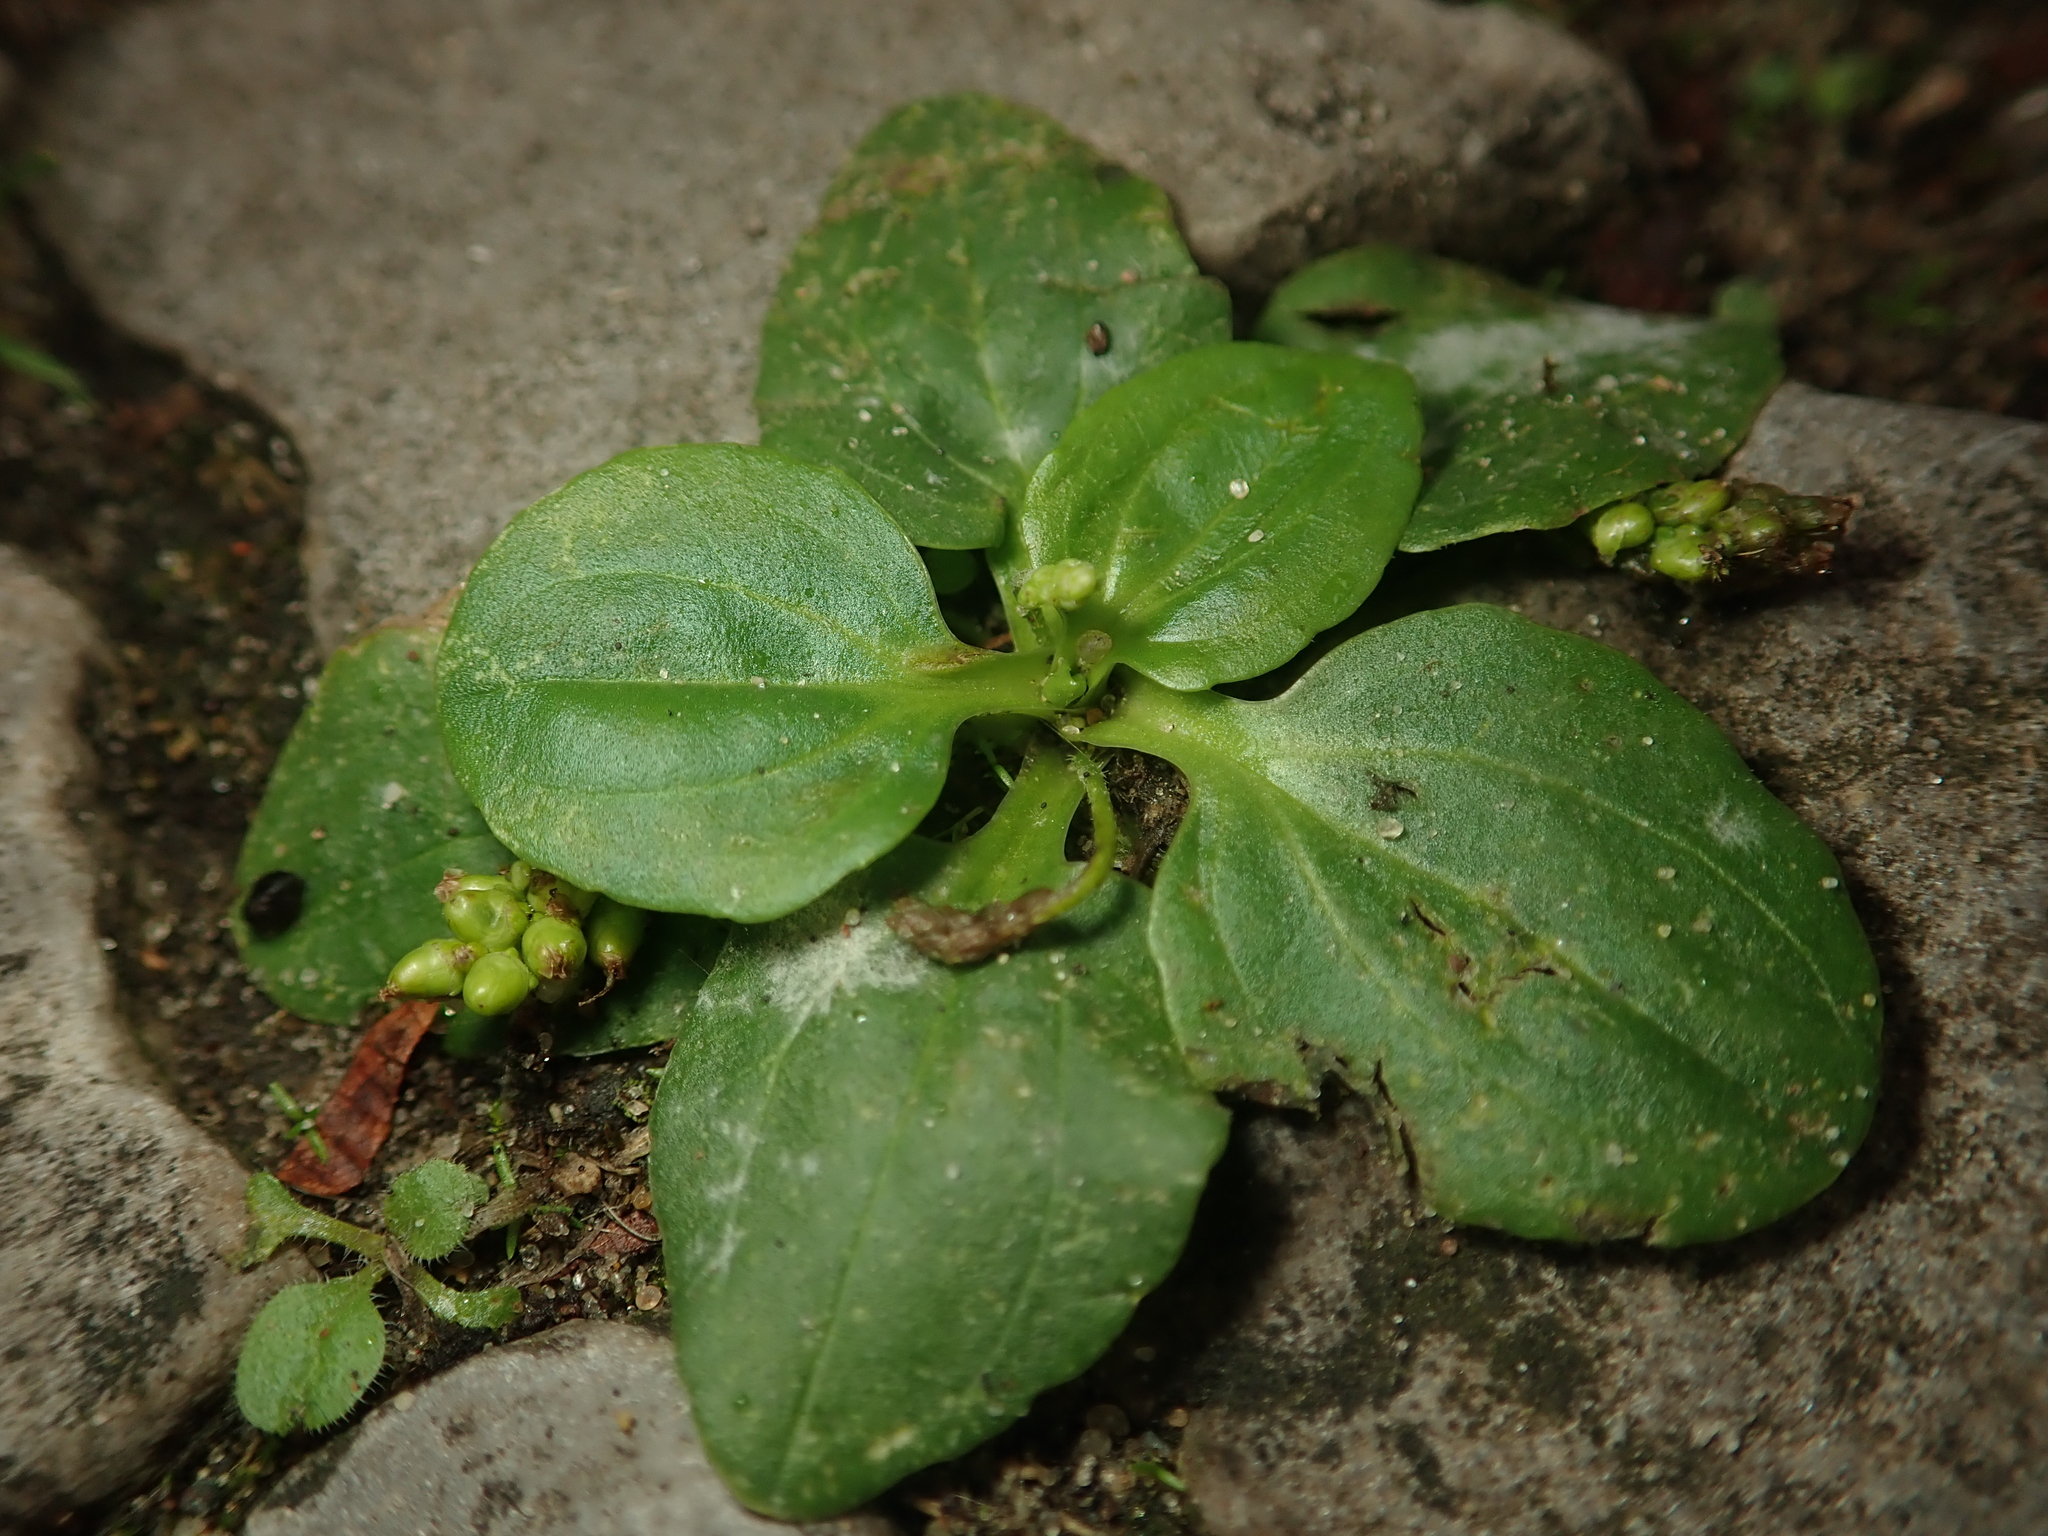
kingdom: Plantae
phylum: Tracheophyta
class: Magnoliopsida
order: Lamiales
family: Plantaginaceae
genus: Plantago
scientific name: Plantago major
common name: Common plantain
